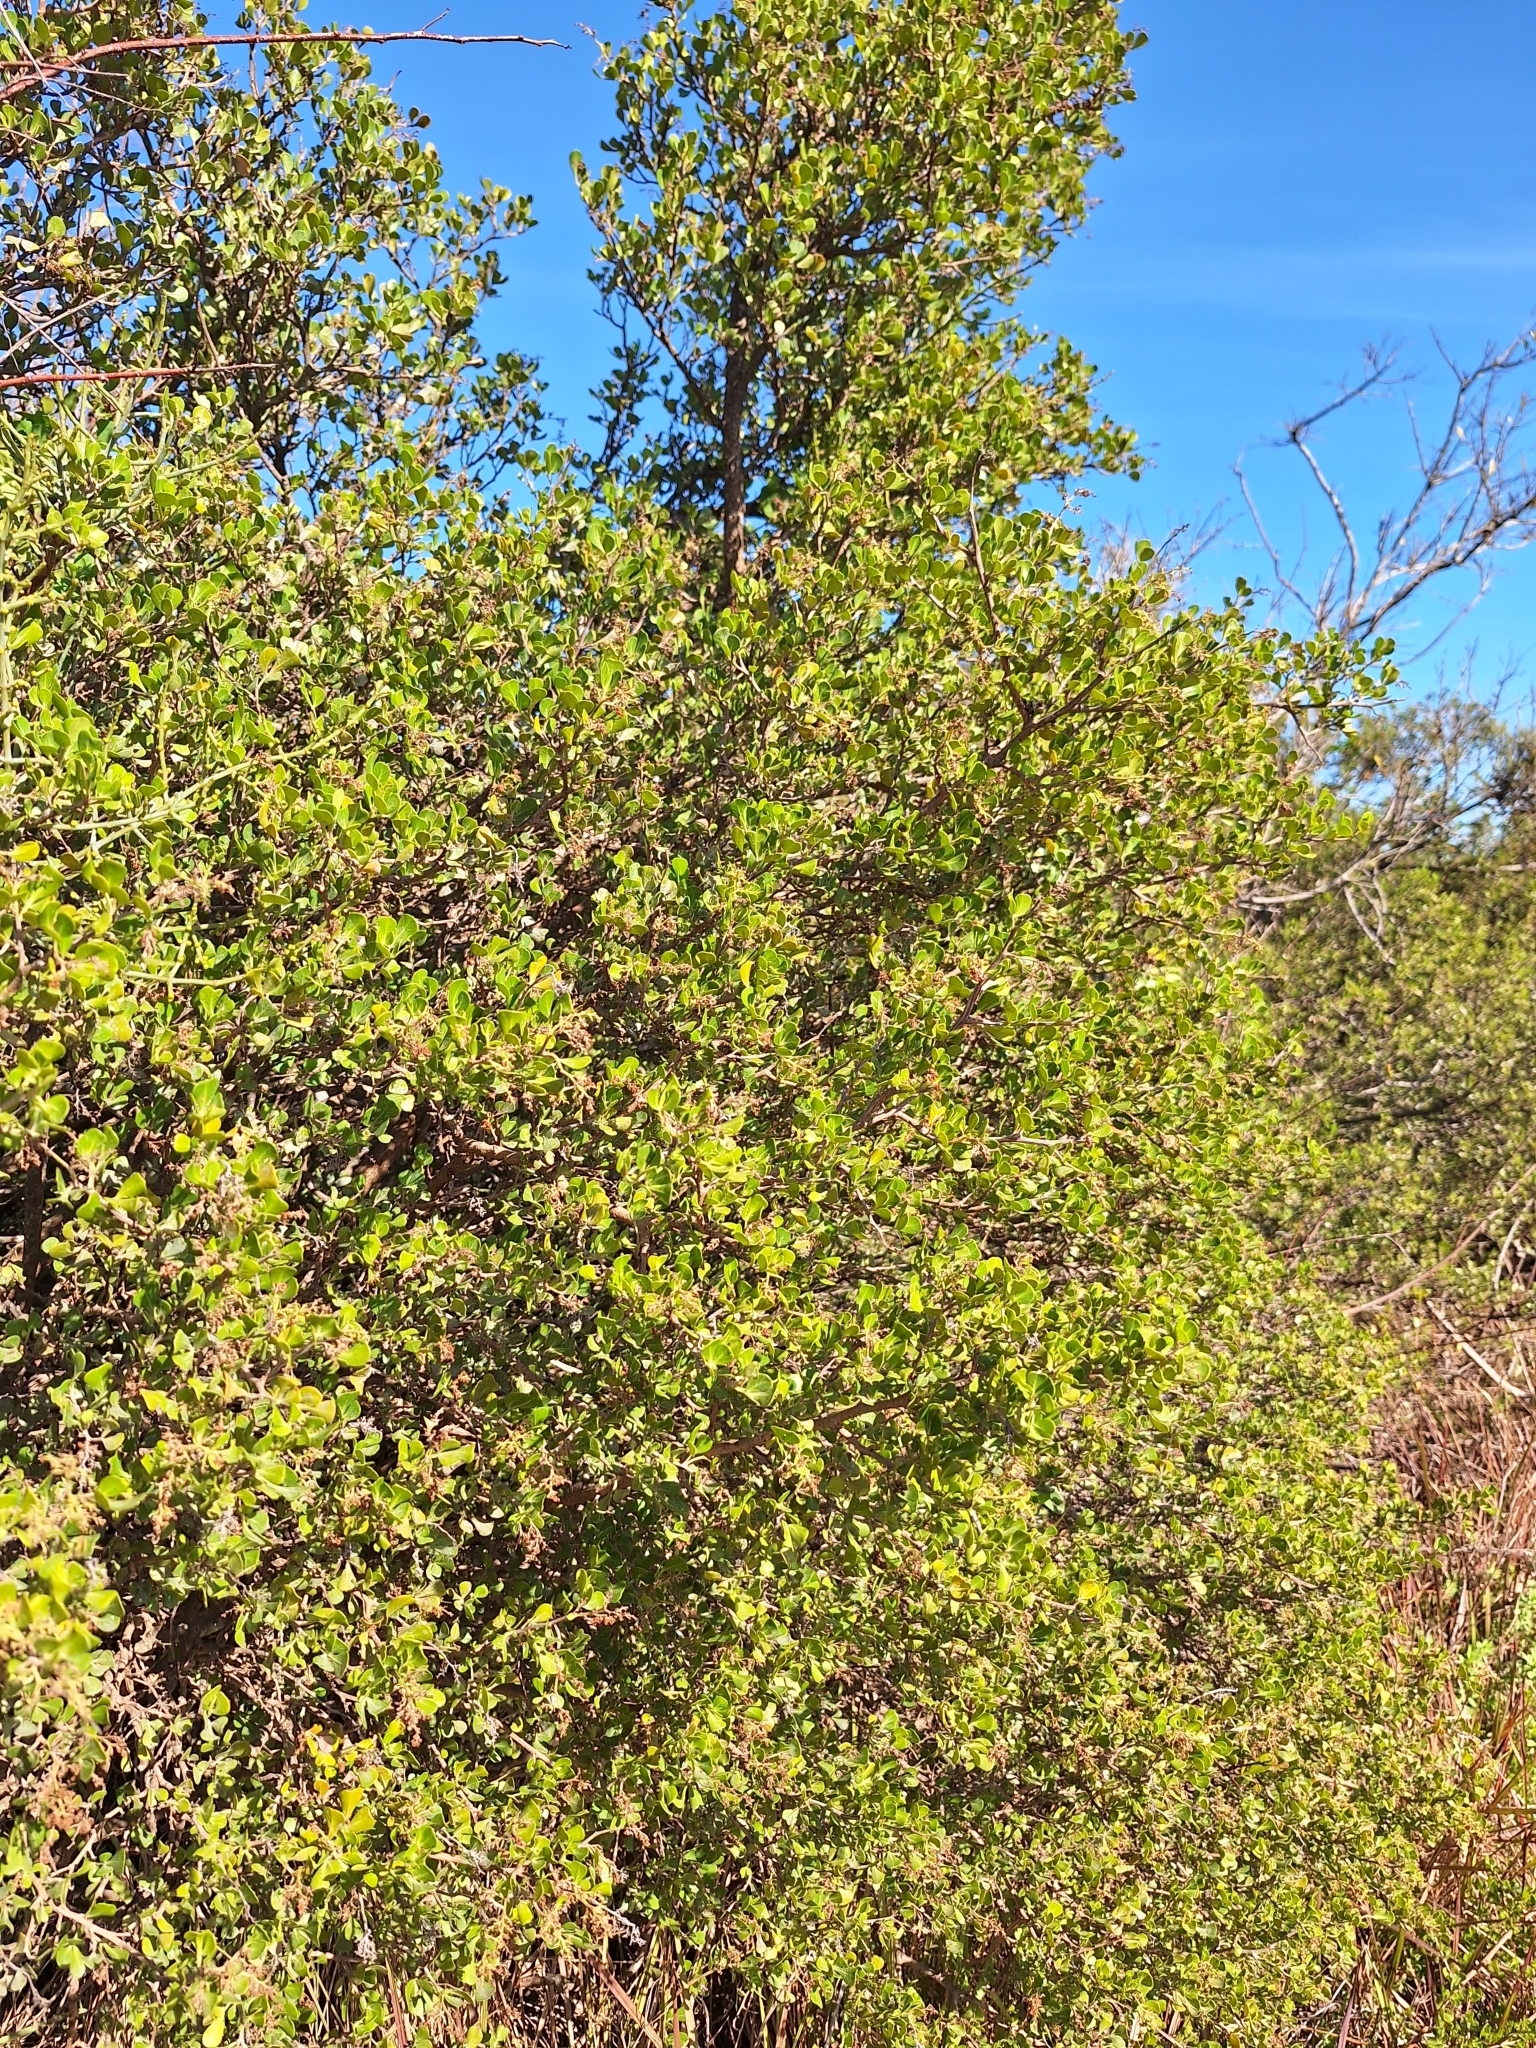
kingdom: Plantae
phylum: Tracheophyta
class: Magnoliopsida
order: Sapindales
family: Anacardiaceae
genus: Searsia
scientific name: Searsia glauca
